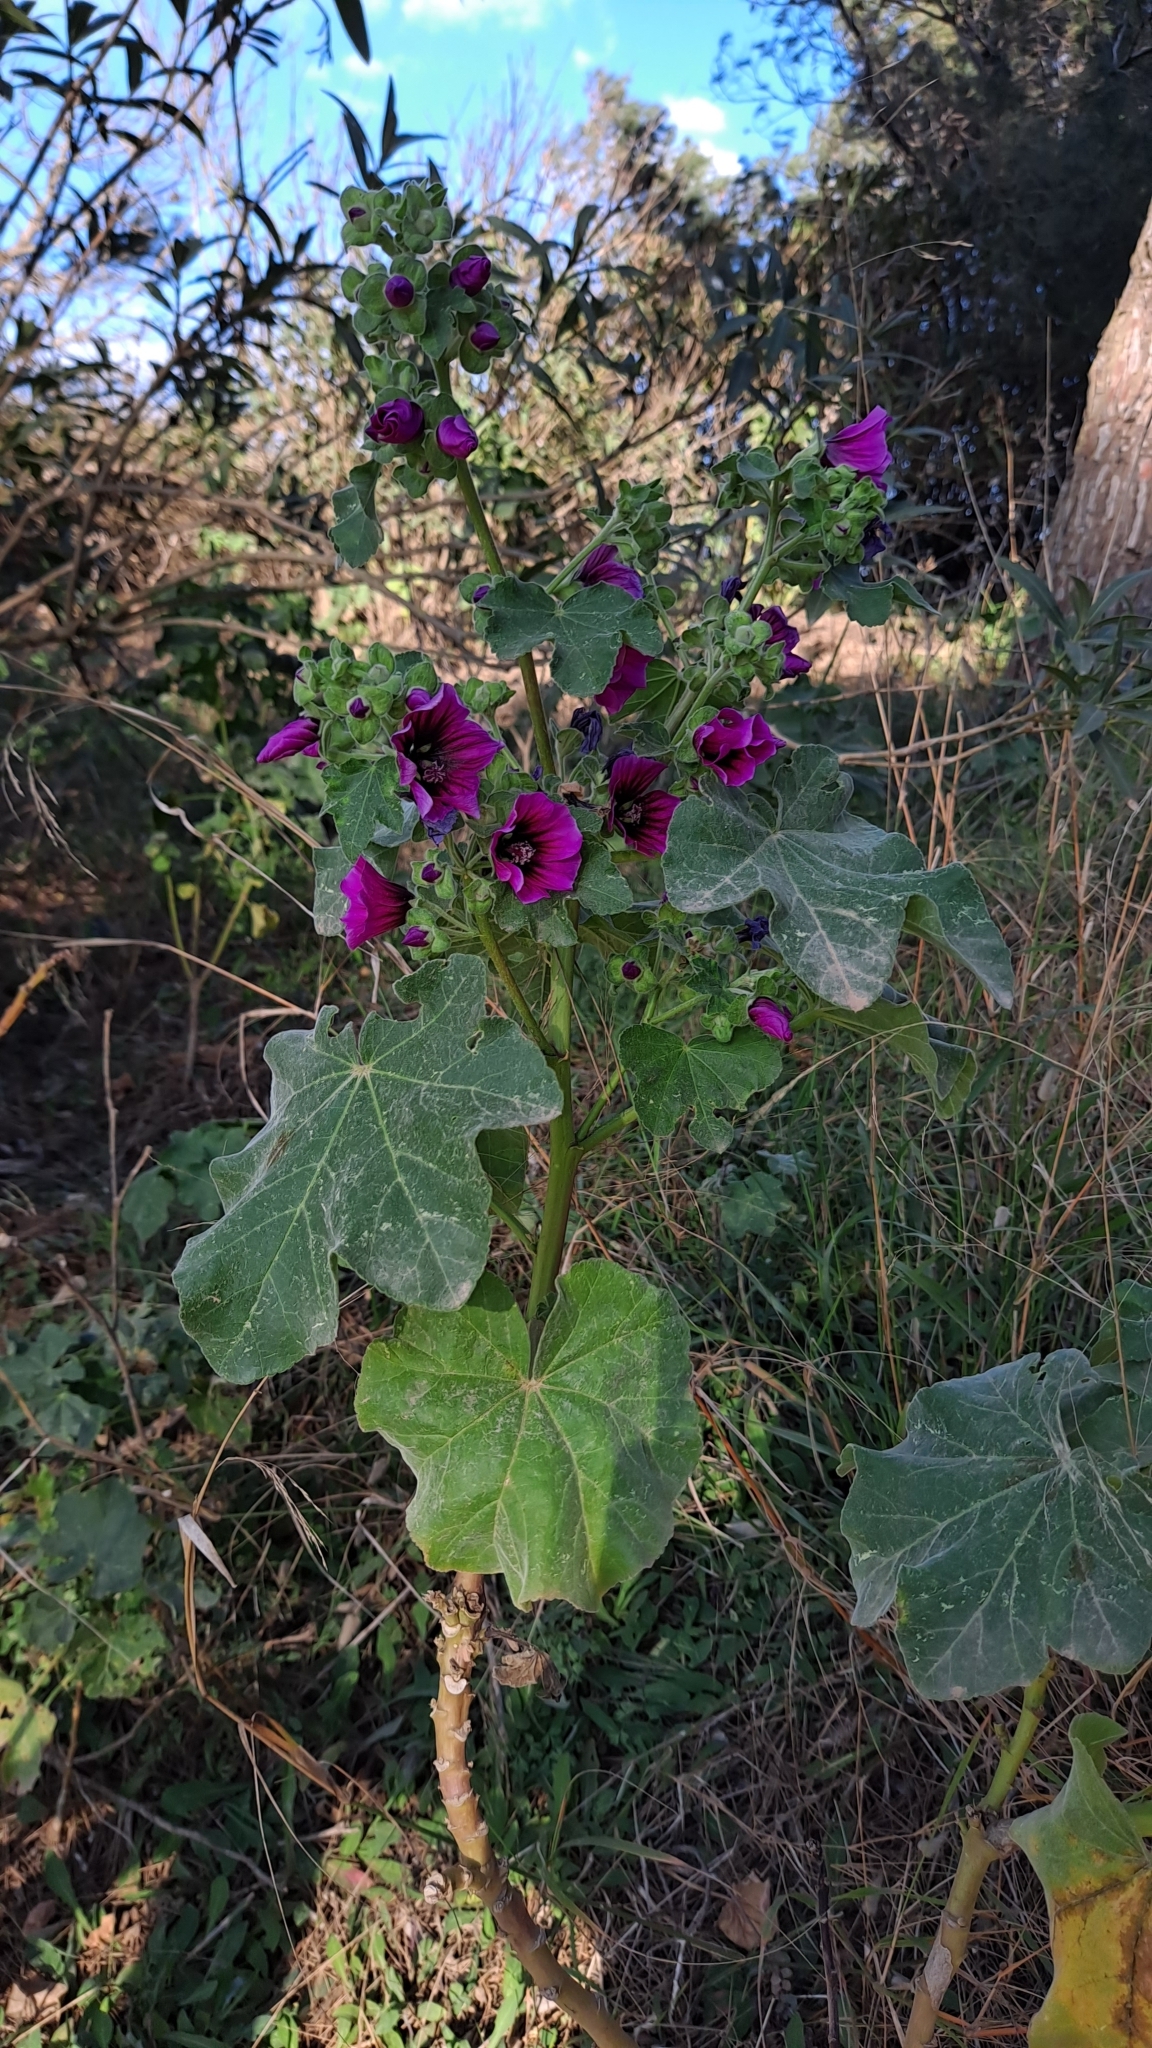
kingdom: Plantae
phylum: Tracheophyta
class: Magnoliopsida
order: Malvales
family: Malvaceae
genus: Malva
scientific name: Malva arborea
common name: Tree mallow
